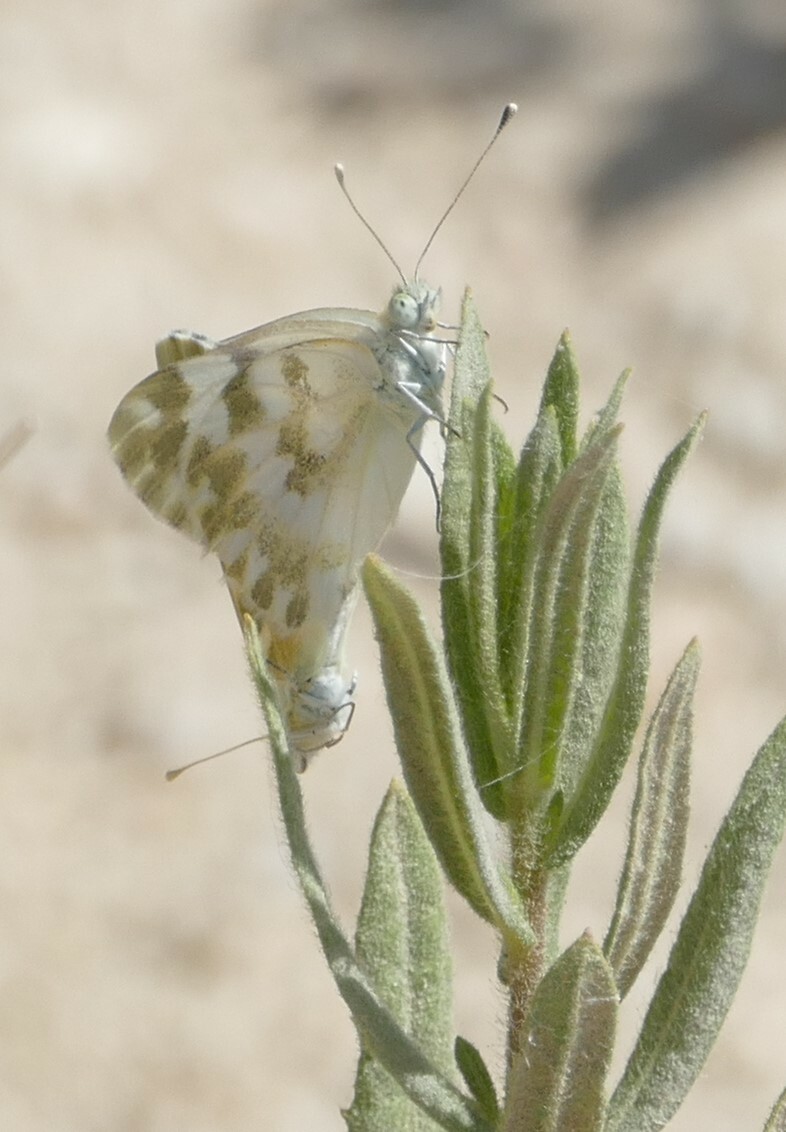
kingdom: Animalia
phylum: Arthropoda
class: Insecta
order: Lepidoptera
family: Pieridae
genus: Pontia
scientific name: Pontia daplidice
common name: Bath white
